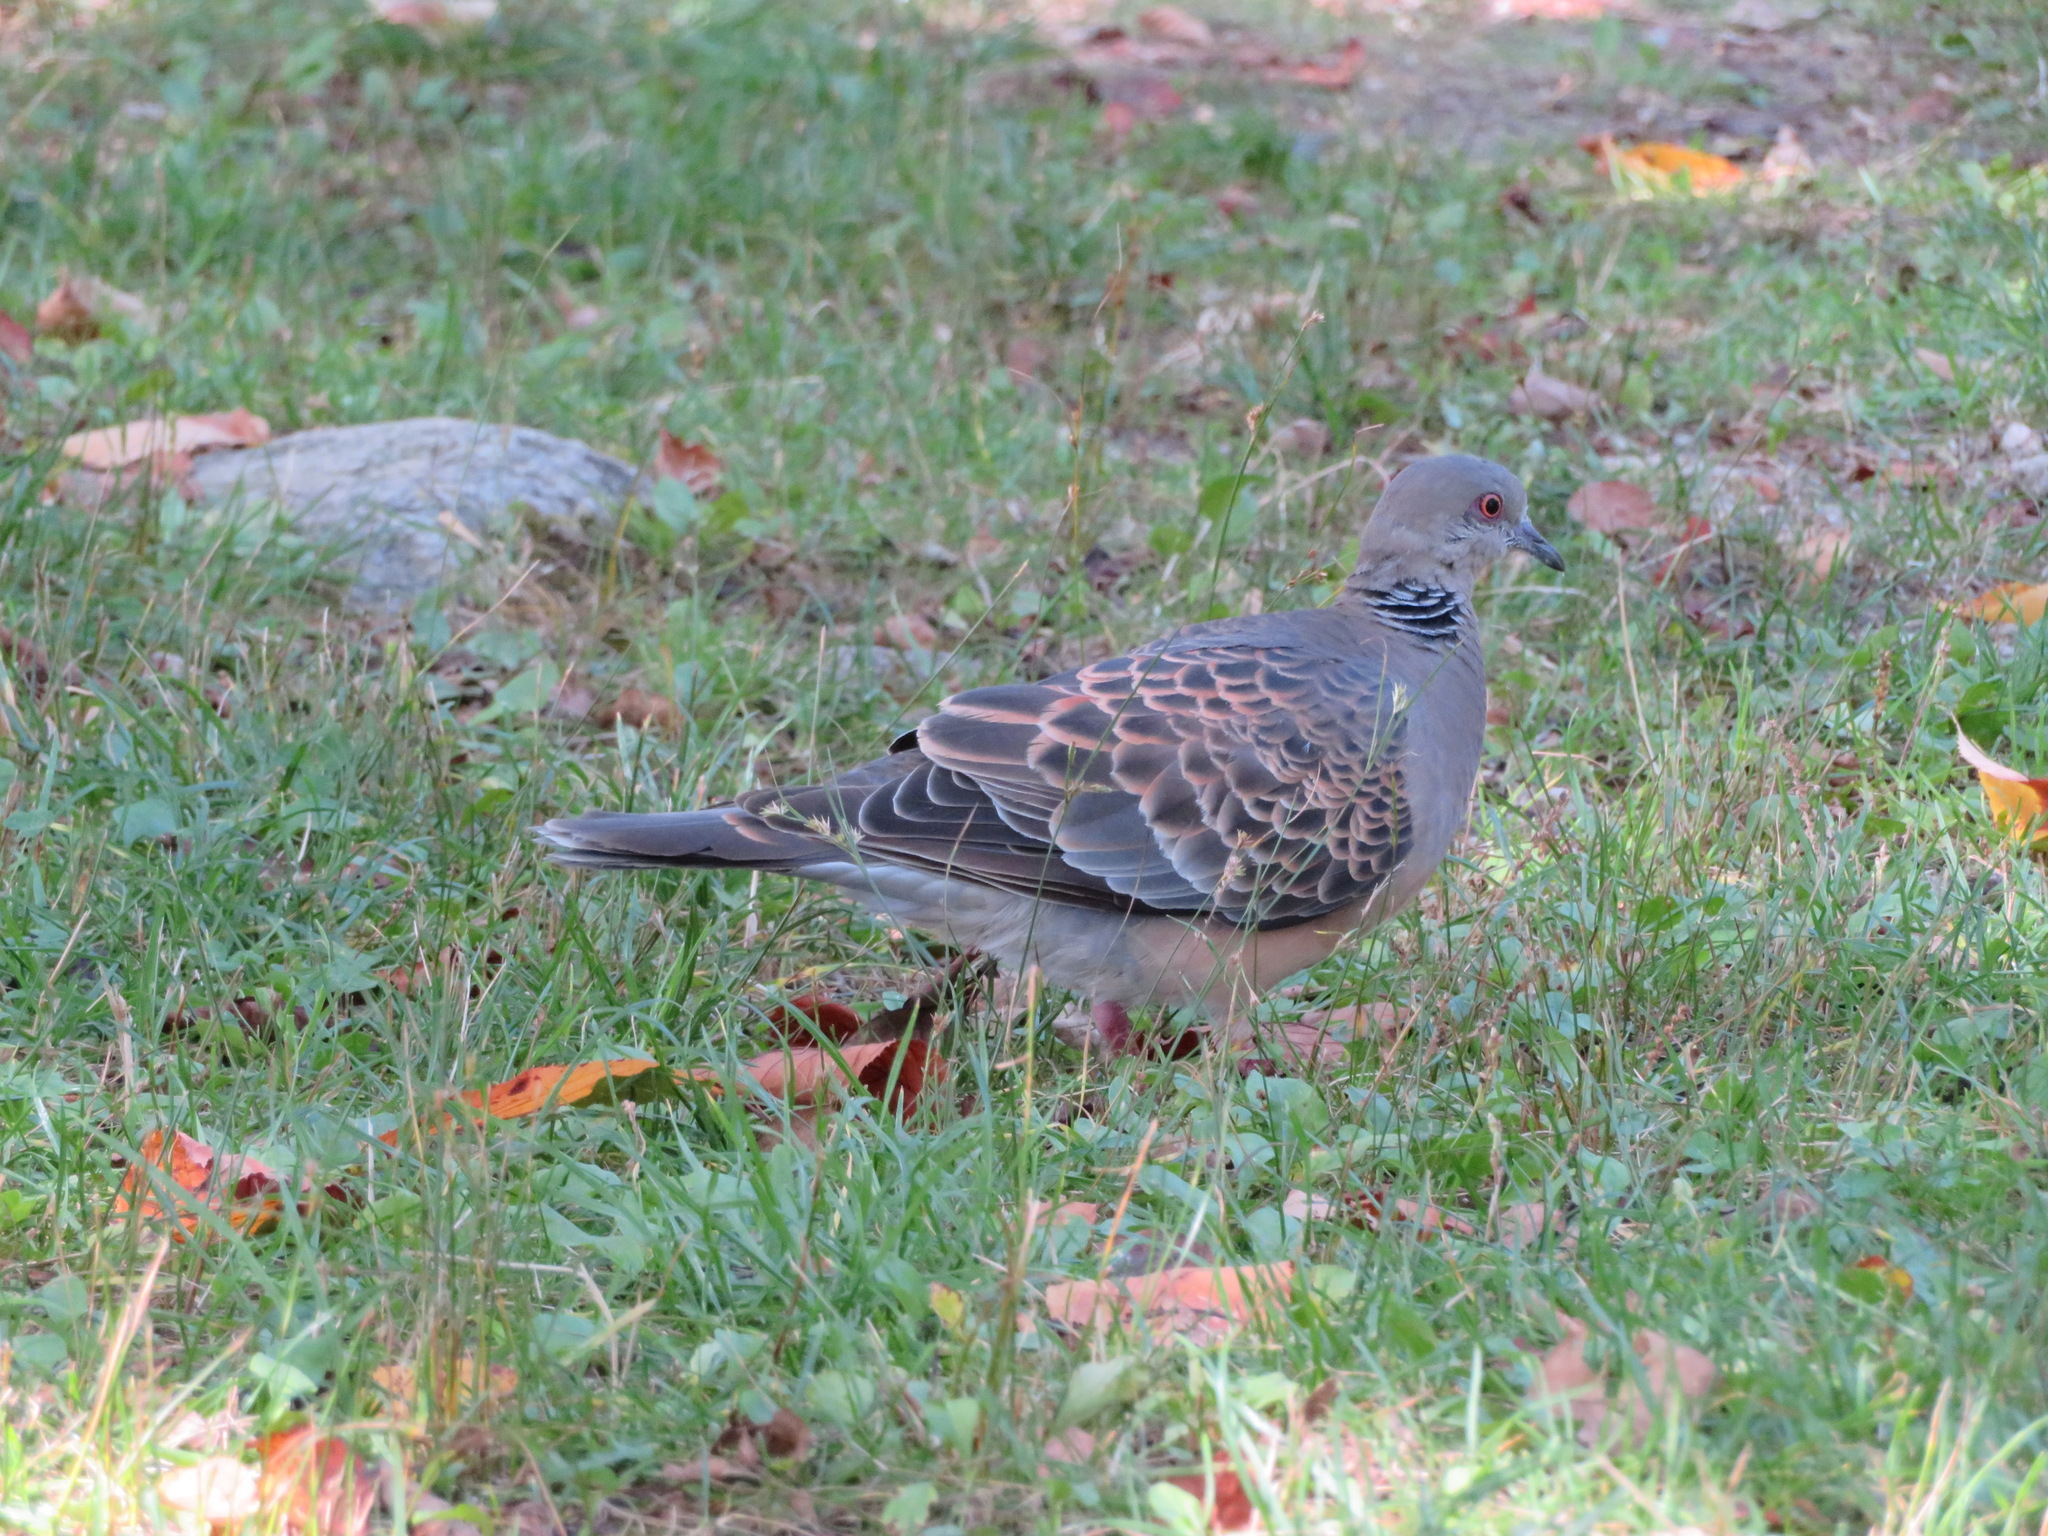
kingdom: Animalia
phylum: Chordata
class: Aves
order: Columbiformes
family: Columbidae
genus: Streptopelia
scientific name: Streptopelia orientalis
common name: Oriental turtle dove
